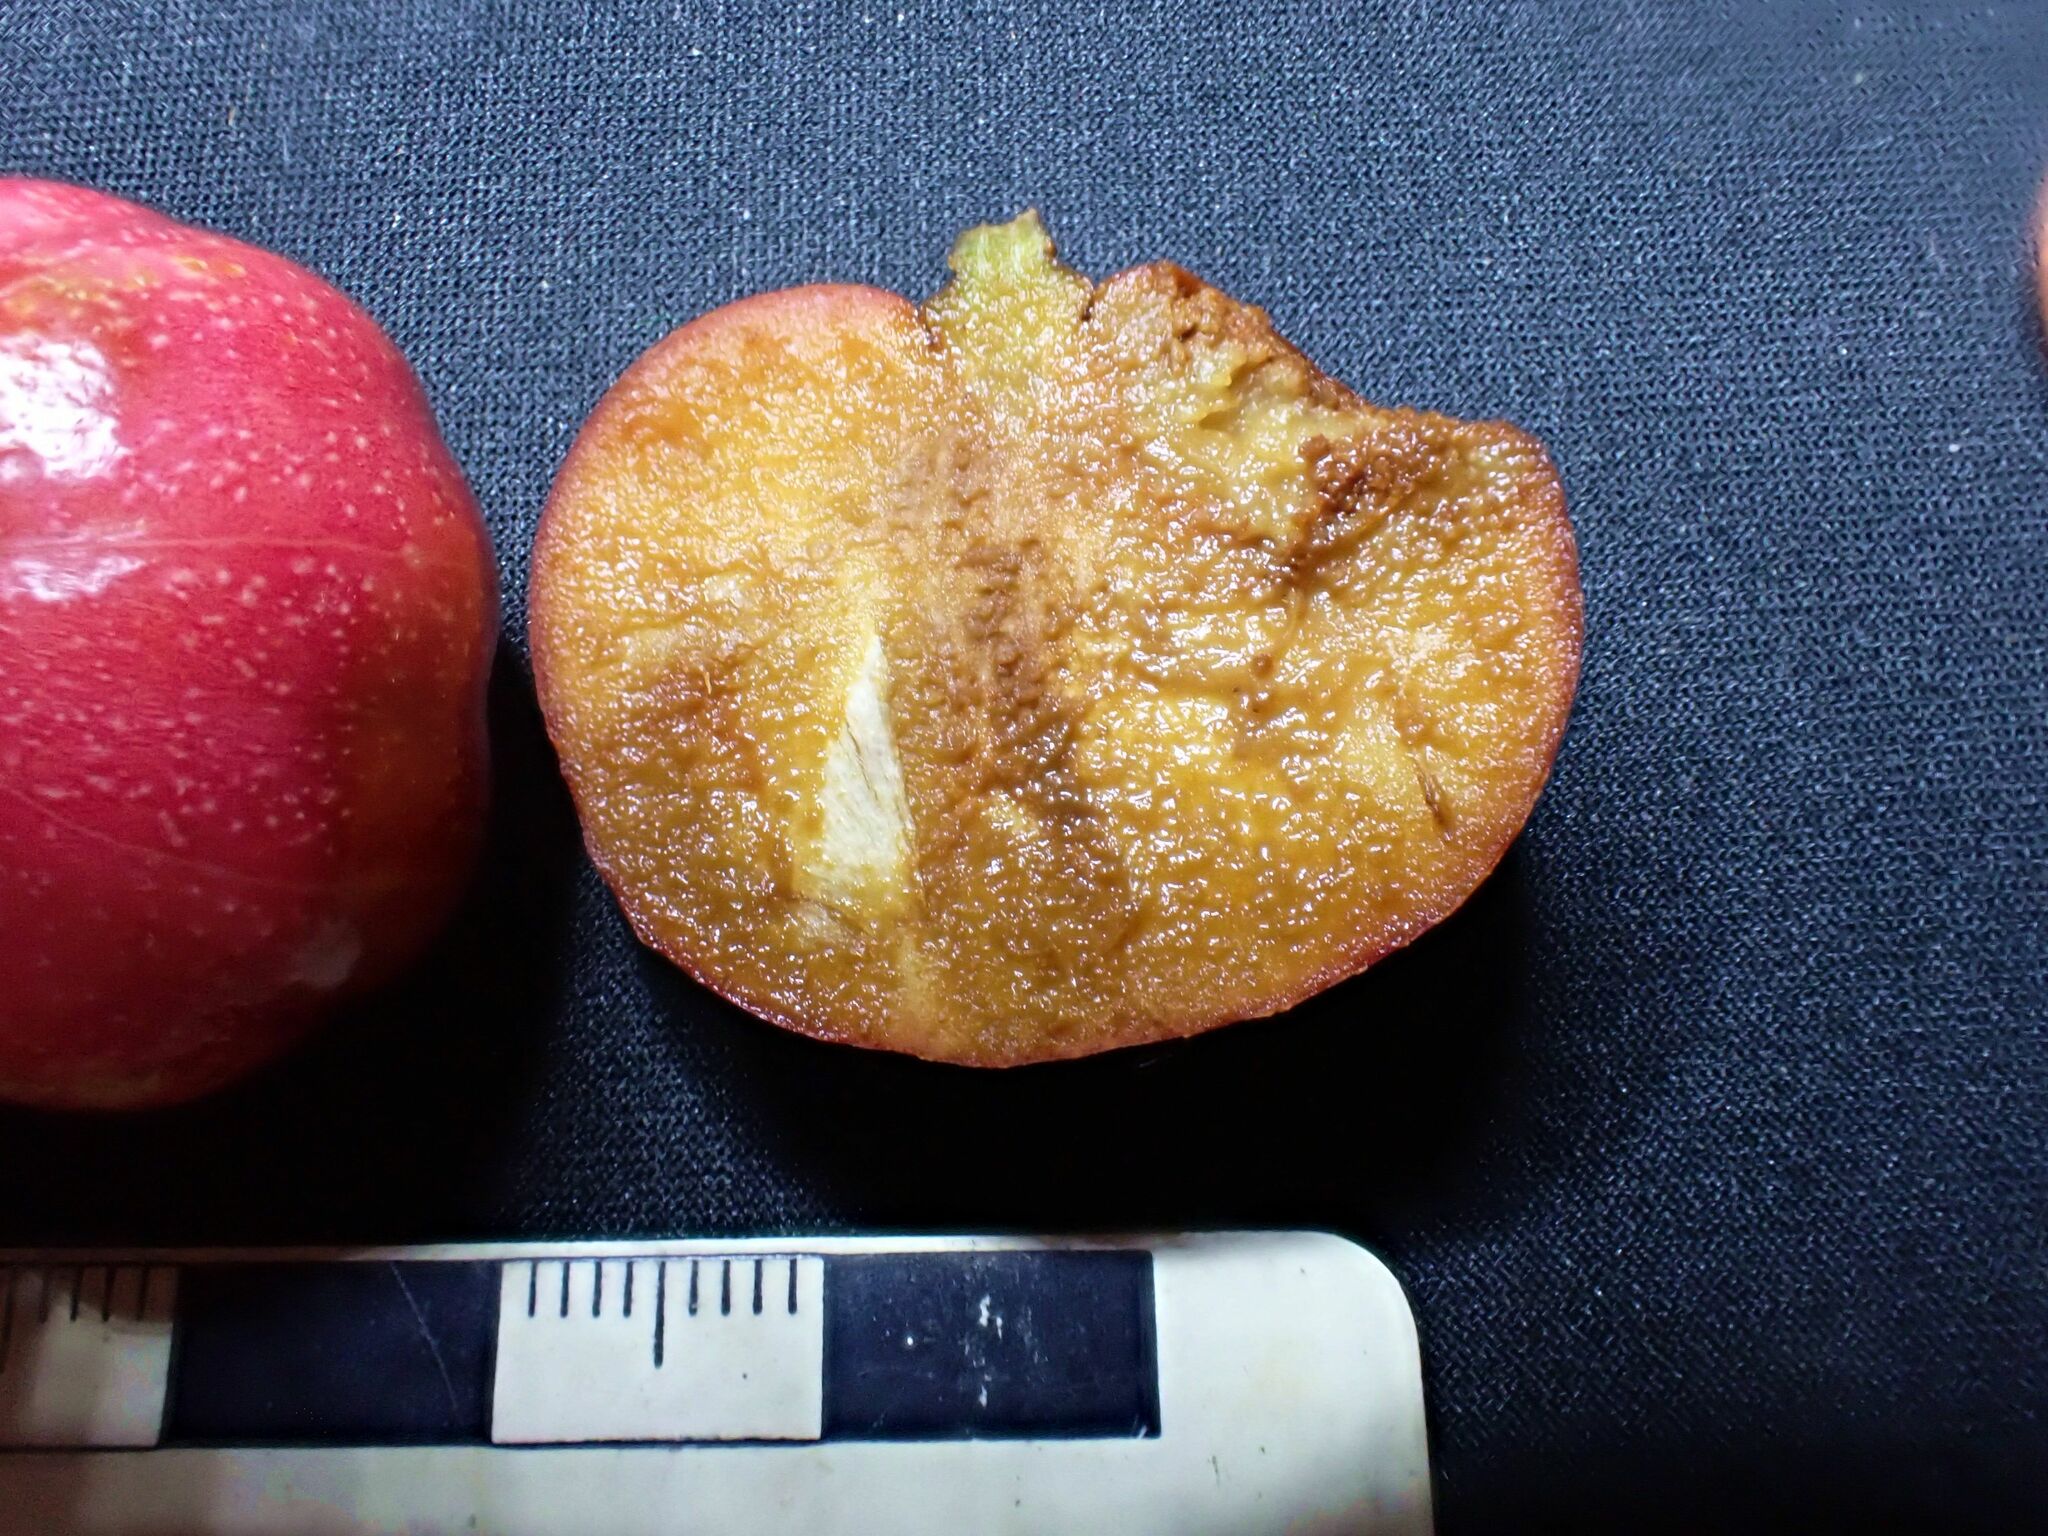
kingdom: Plantae
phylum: Tracheophyta
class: Magnoliopsida
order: Magnoliales
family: Himantandraceae
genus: Galbulimima
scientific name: Galbulimima belgraveana
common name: Northern pigeonberry-ash
